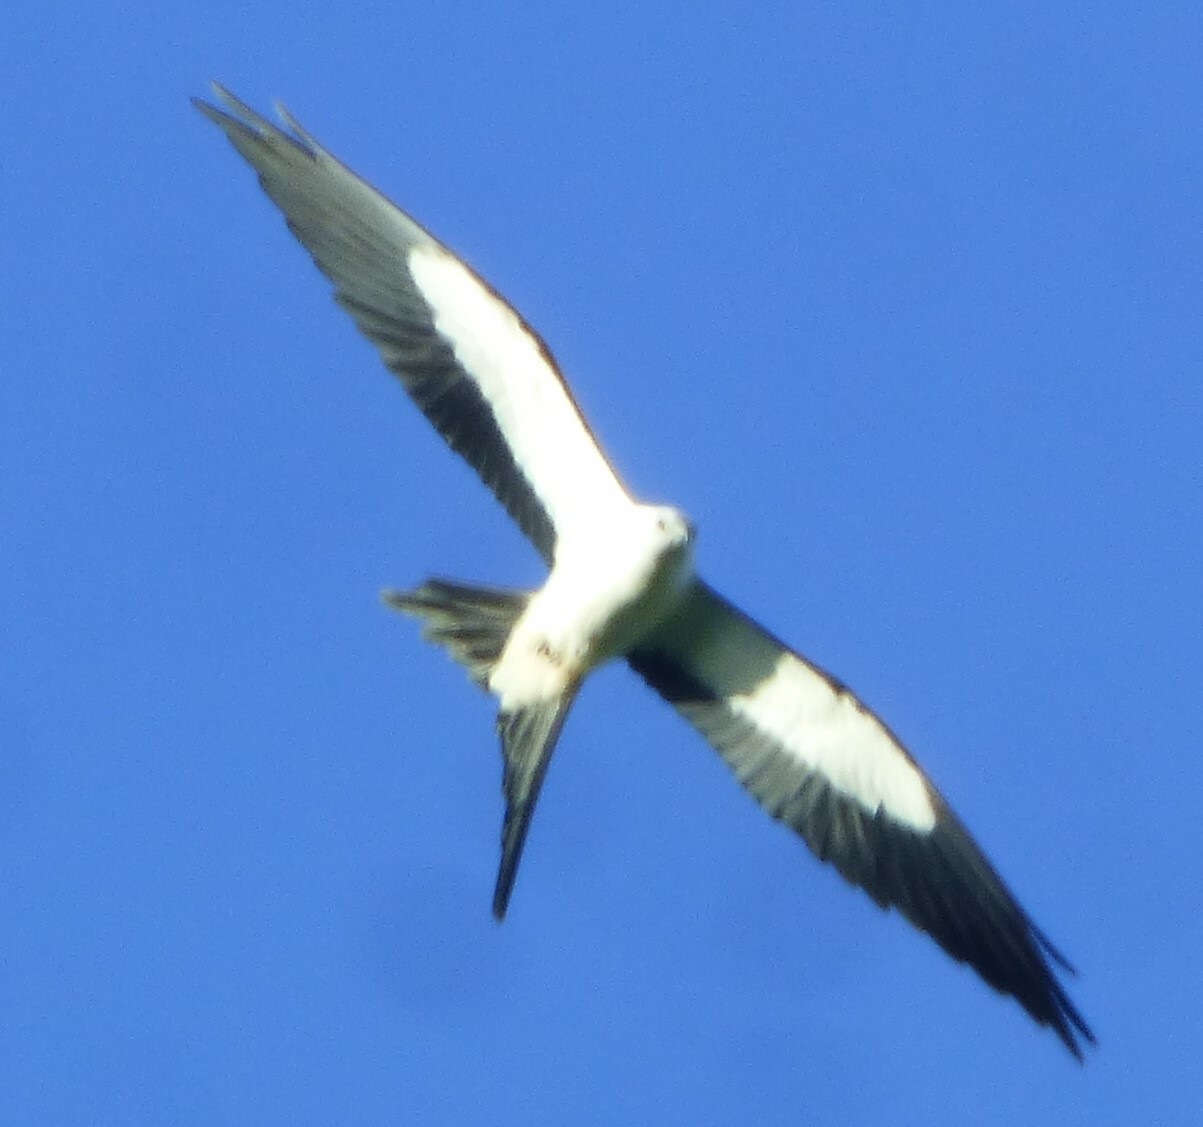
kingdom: Animalia
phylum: Chordata
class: Aves
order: Accipitriformes
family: Accipitridae
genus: Elanoides
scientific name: Elanoides forficatus
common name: Swallow-tailed kite
